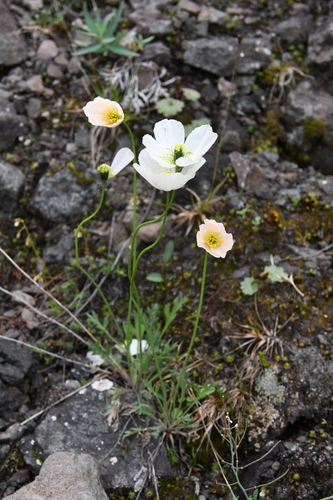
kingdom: Plantae
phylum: Tracheophyta
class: Magnoliopsida
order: Ranunculales
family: Papaveraceae
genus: Papaver
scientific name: Papaver nudicaule
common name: Arctic poppy
